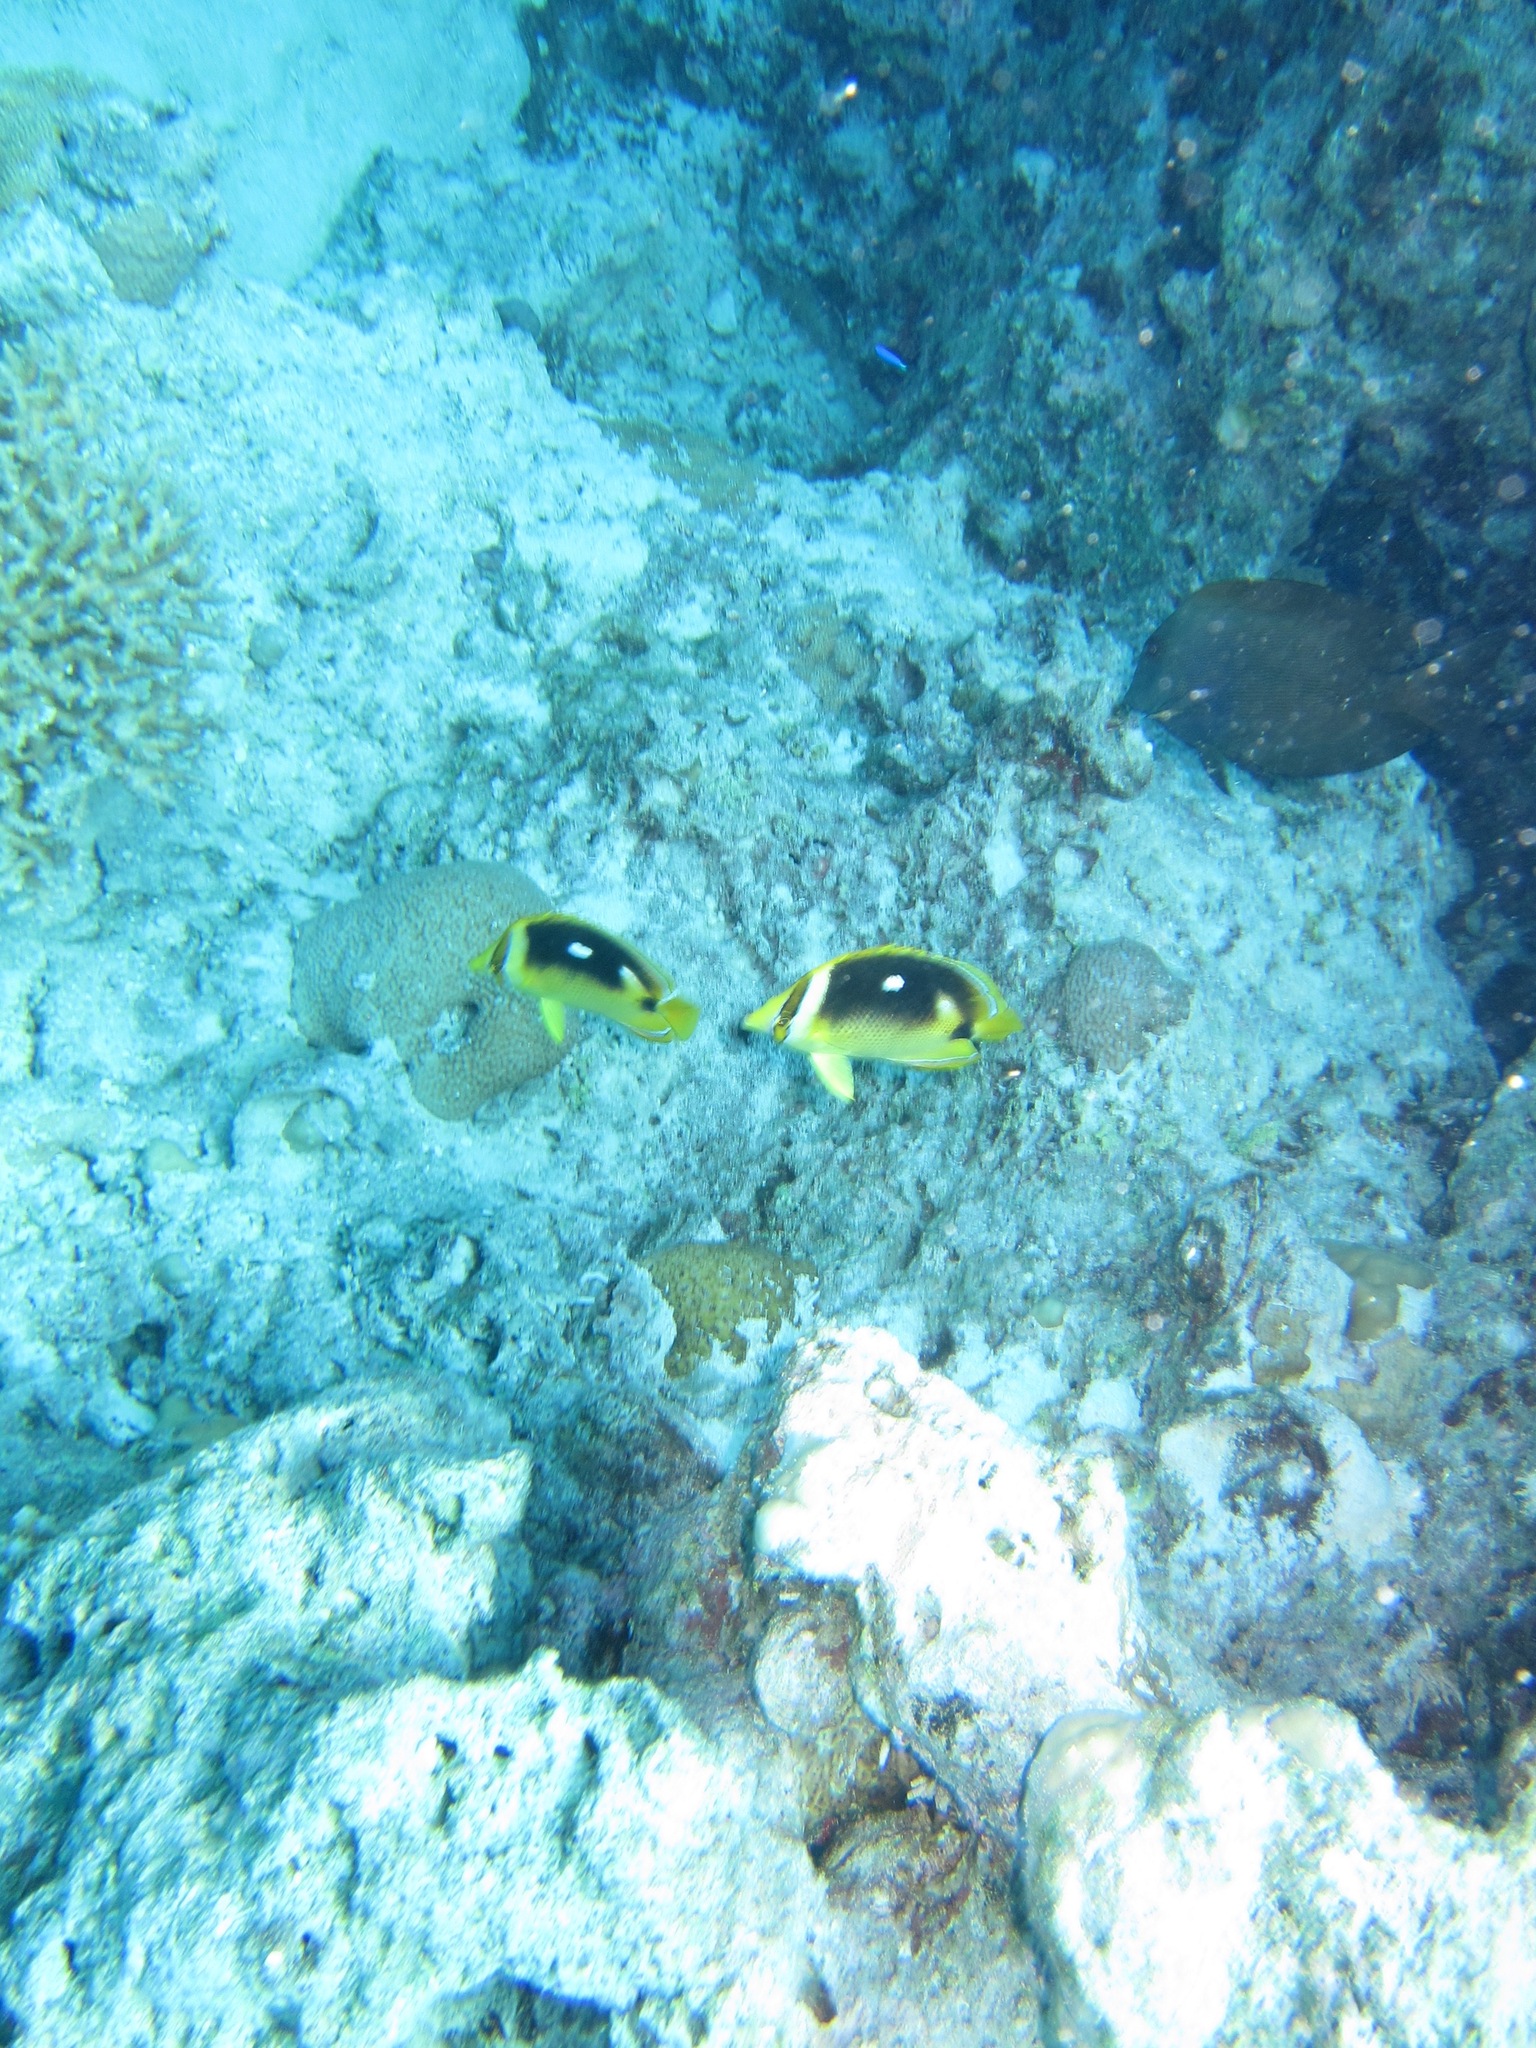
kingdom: Animalia
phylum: Chordata
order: Perciformes
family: Chaetodontidae
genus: Chaetodon
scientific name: Chaetodon quadrimaculatus
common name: Fourspot butterflyfish
